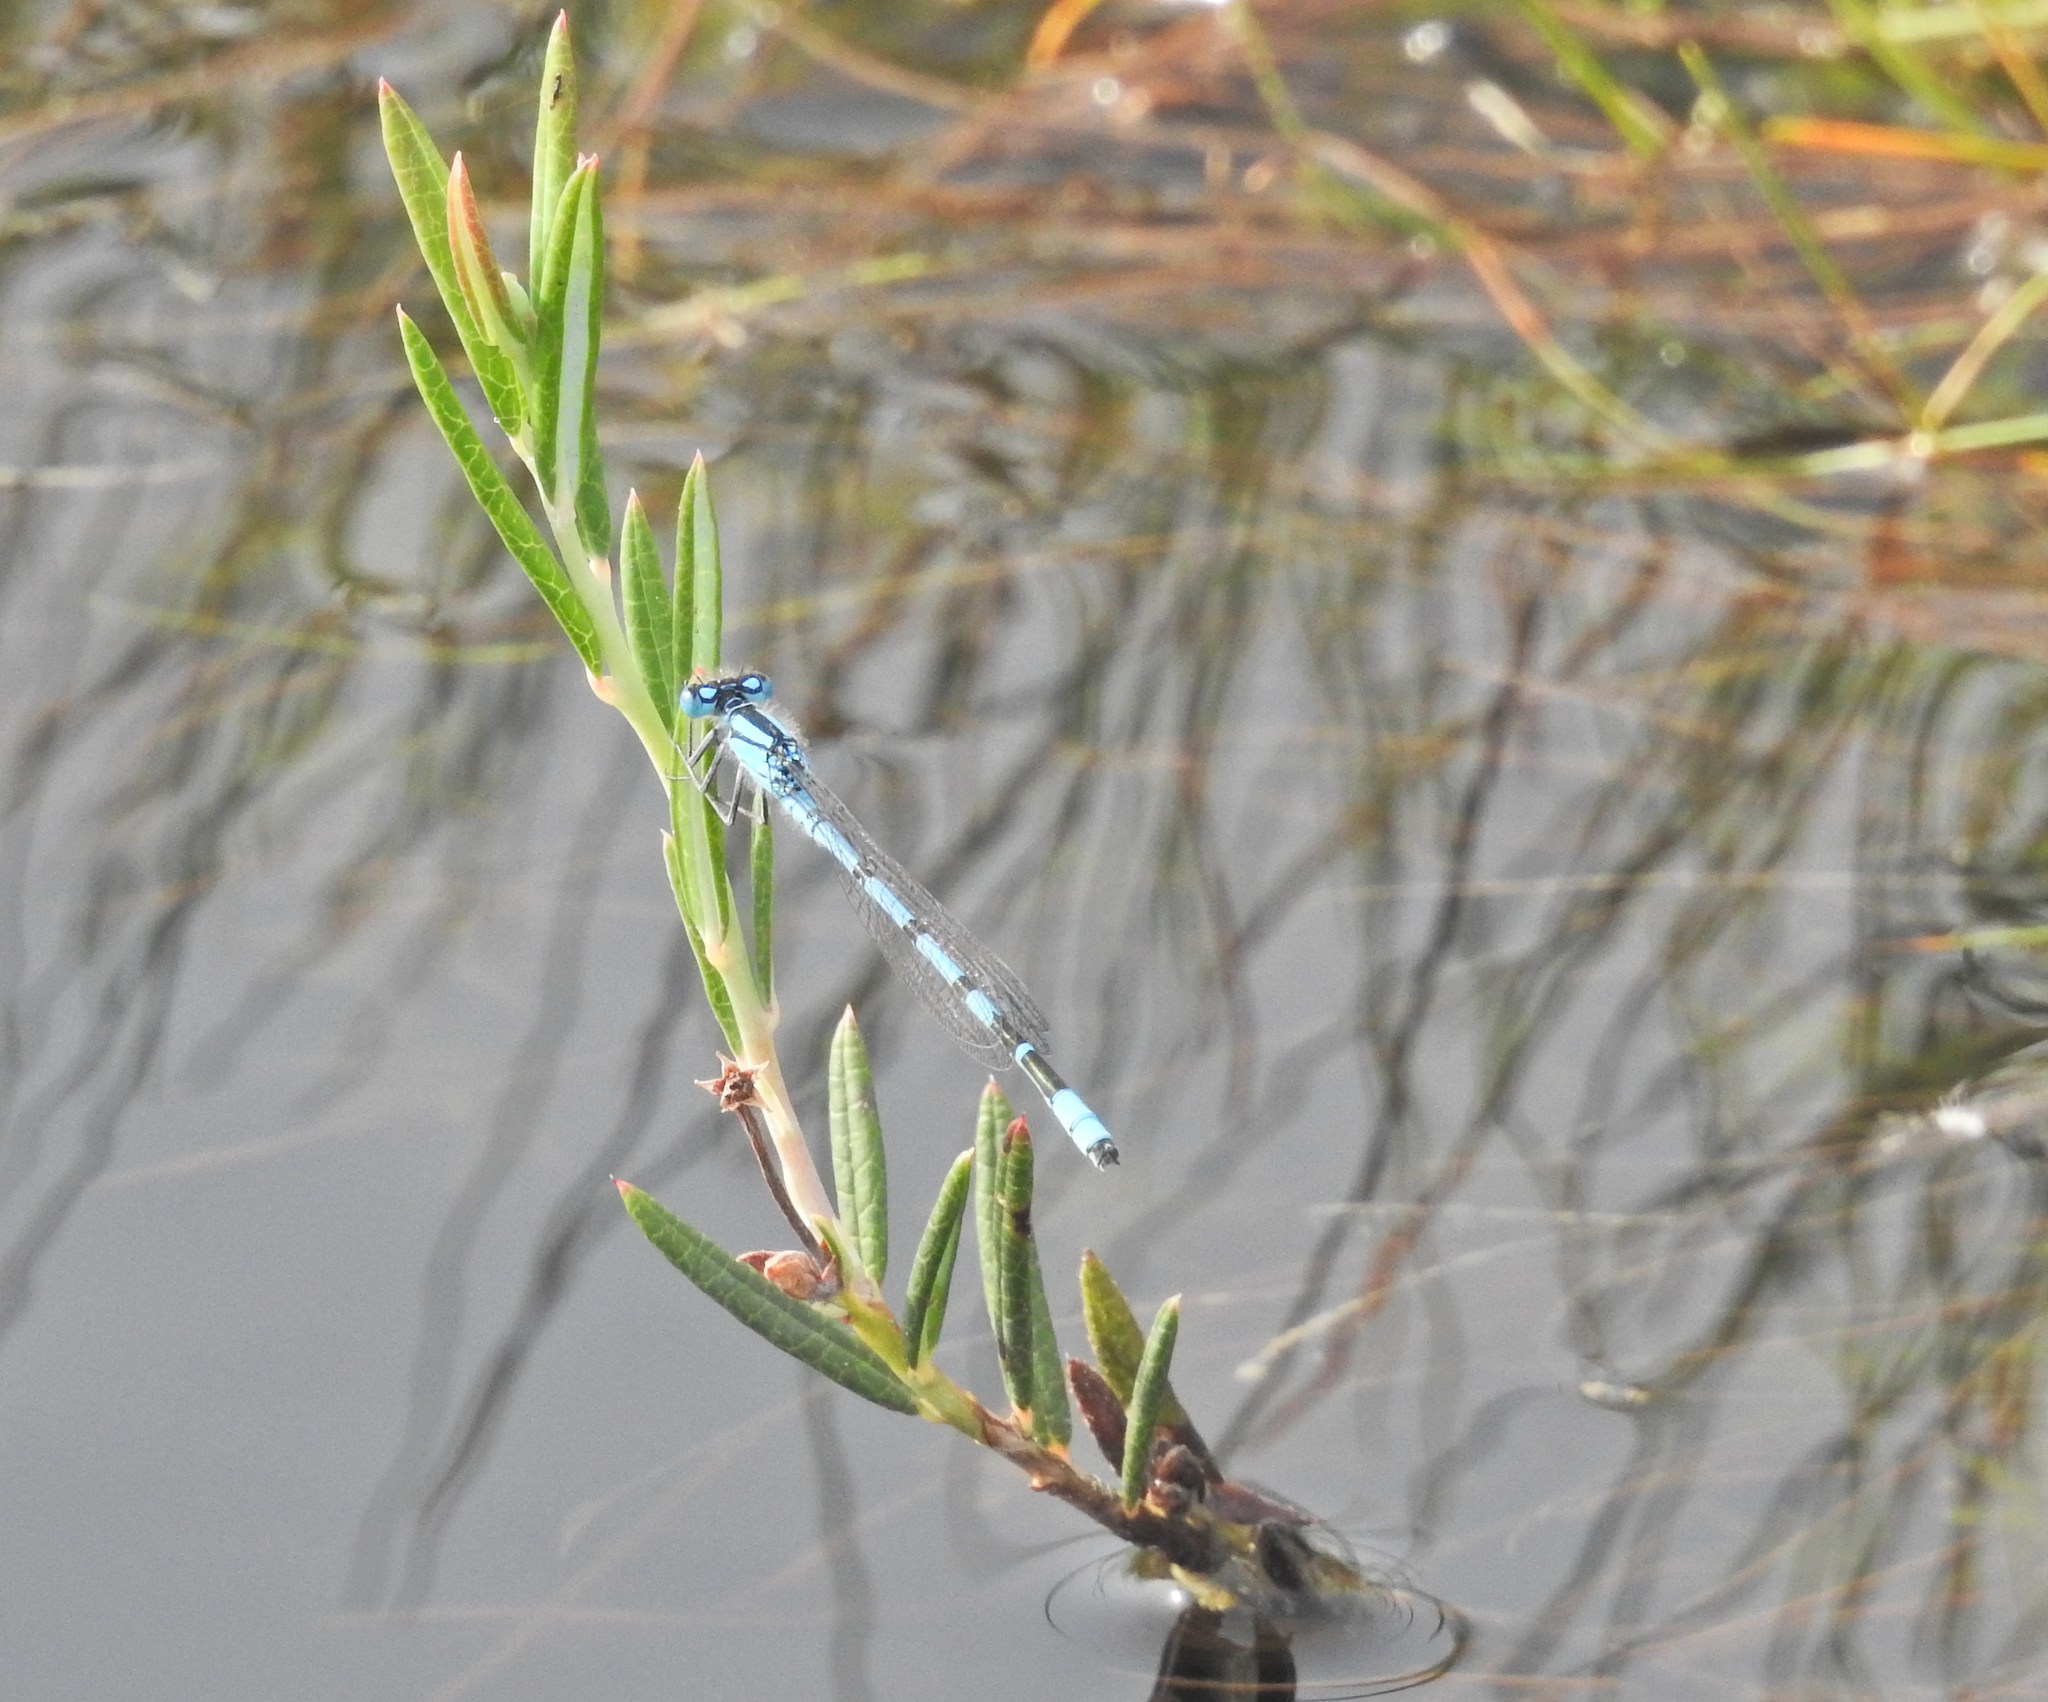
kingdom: Animalia
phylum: Arthropoda
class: Insecta
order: Odonata
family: Coenagrionidae
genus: Enallagma
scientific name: Enallagma cyathigerum
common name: Common blue damselfly
